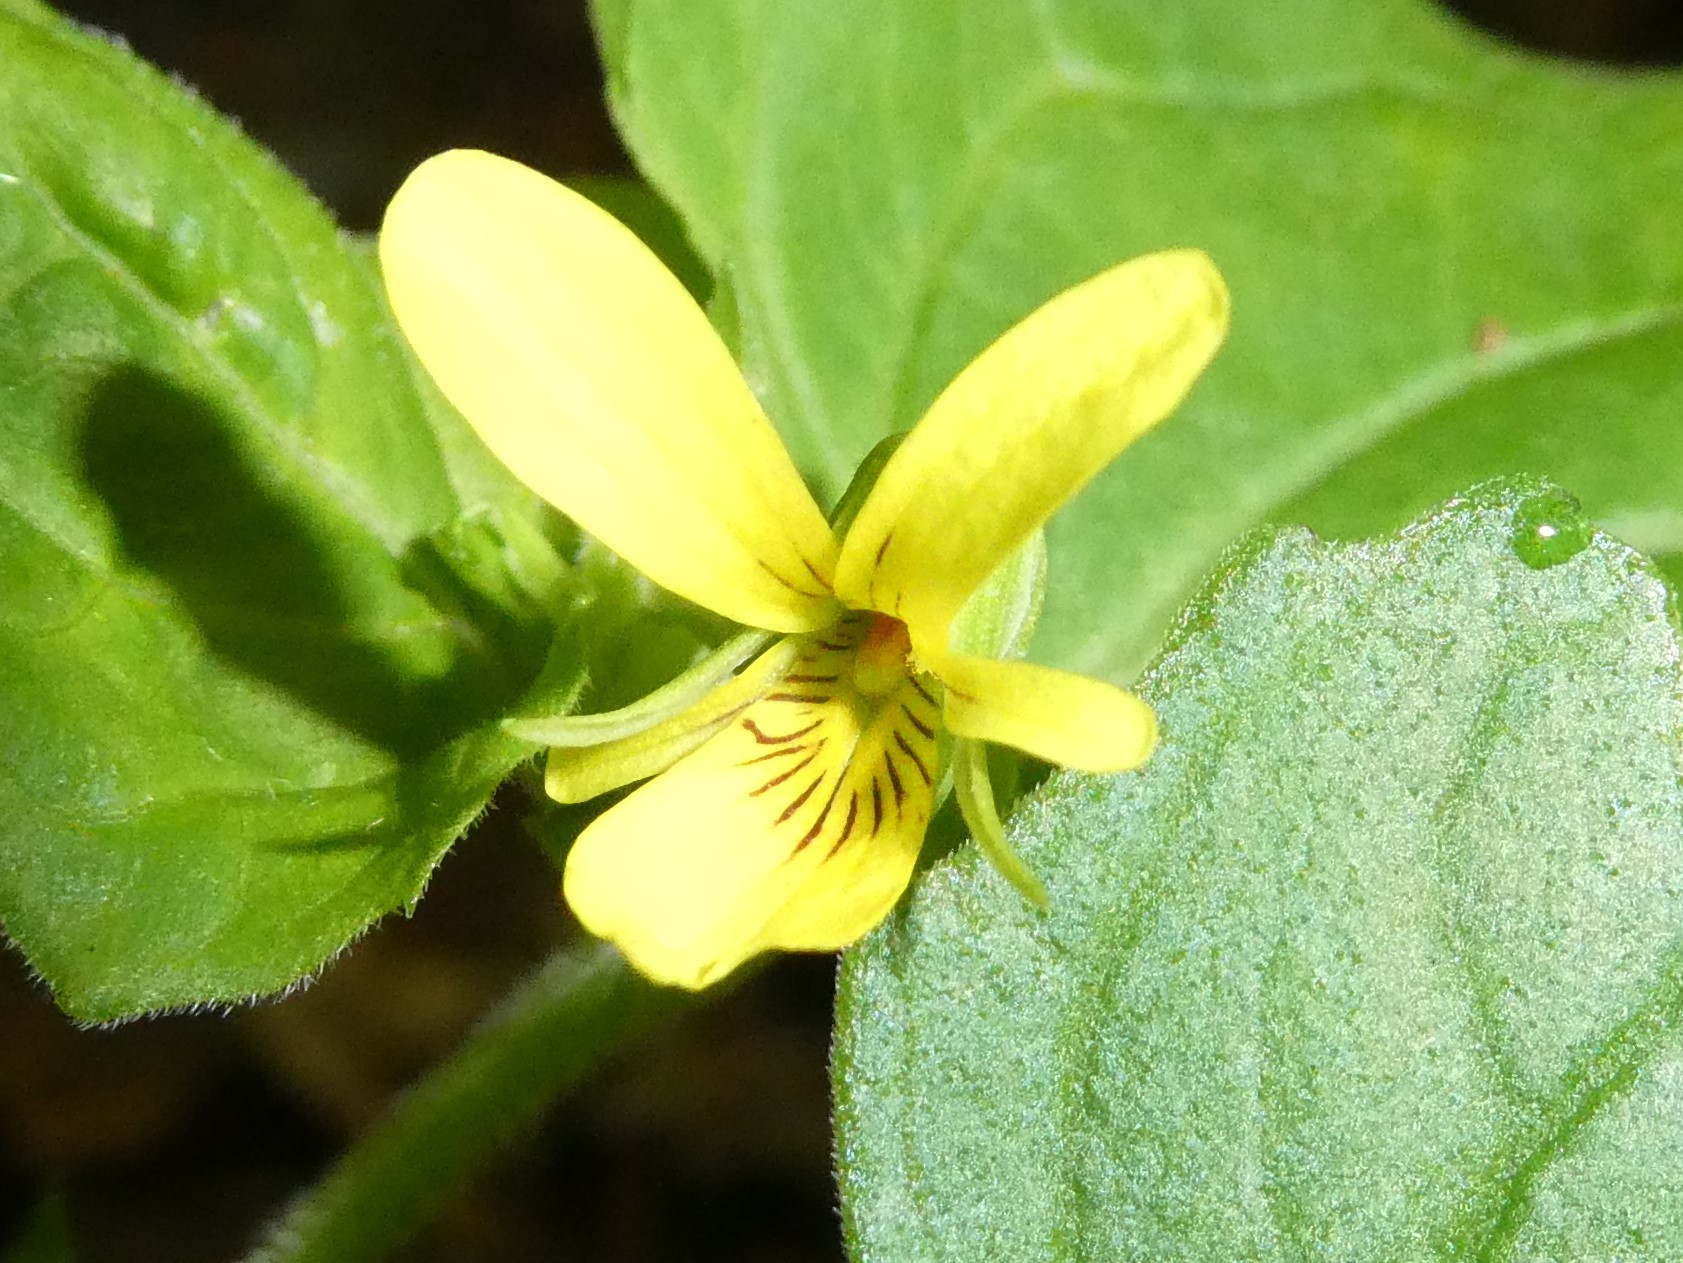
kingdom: Plantae
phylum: Tracheophyta
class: Magnoliopsida
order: Malpighiales
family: Violaceae
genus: Viola
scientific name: Viola eriocarpa
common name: Smooth yellow violet
